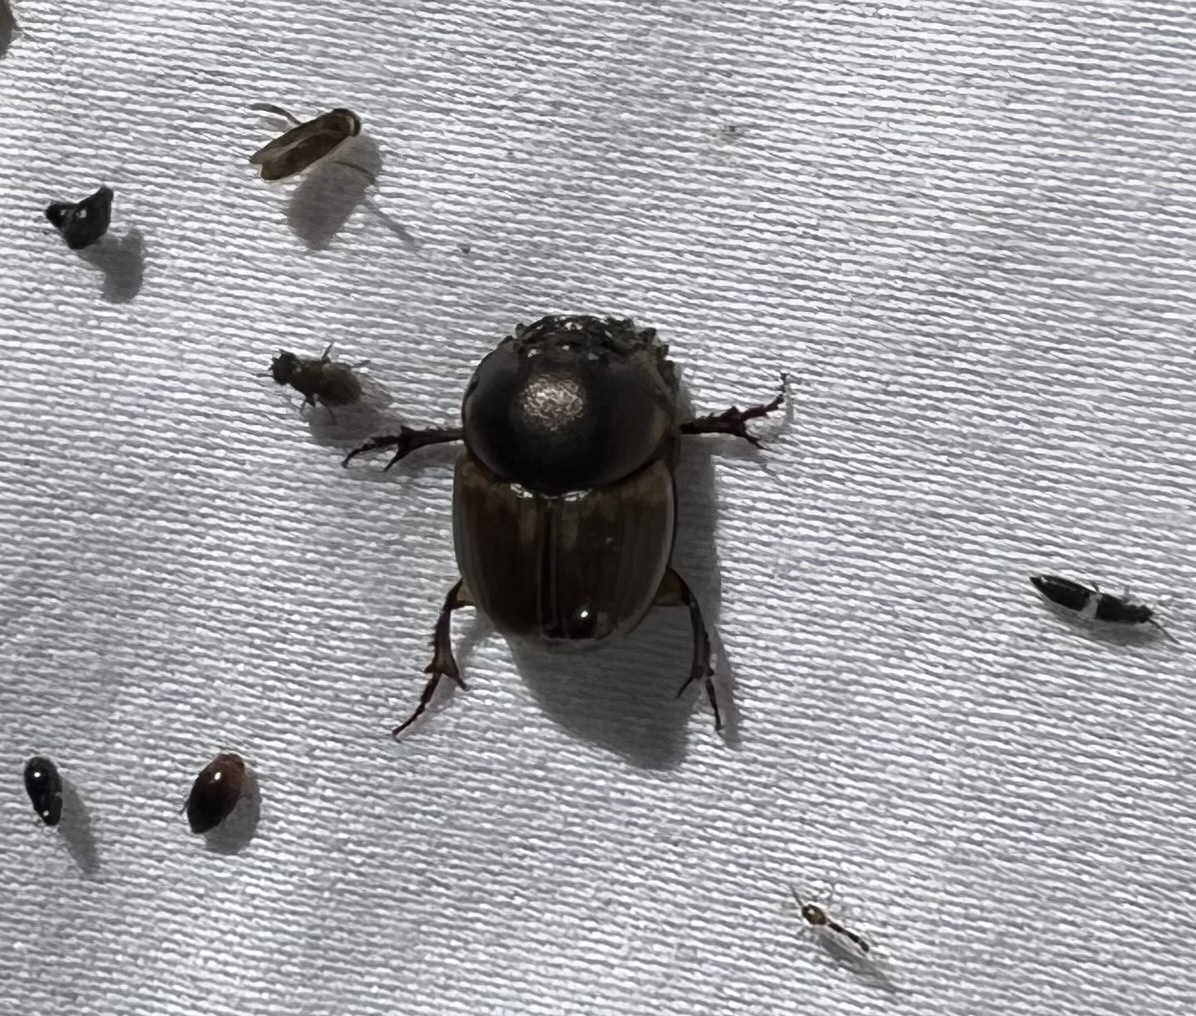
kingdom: Animalia
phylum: Arthropoda
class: Insecta
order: Coleoptera
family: Scarabaeidae
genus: Digitonthophagus
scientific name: Digitonthophagus gazella
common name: Brown dung beetle
